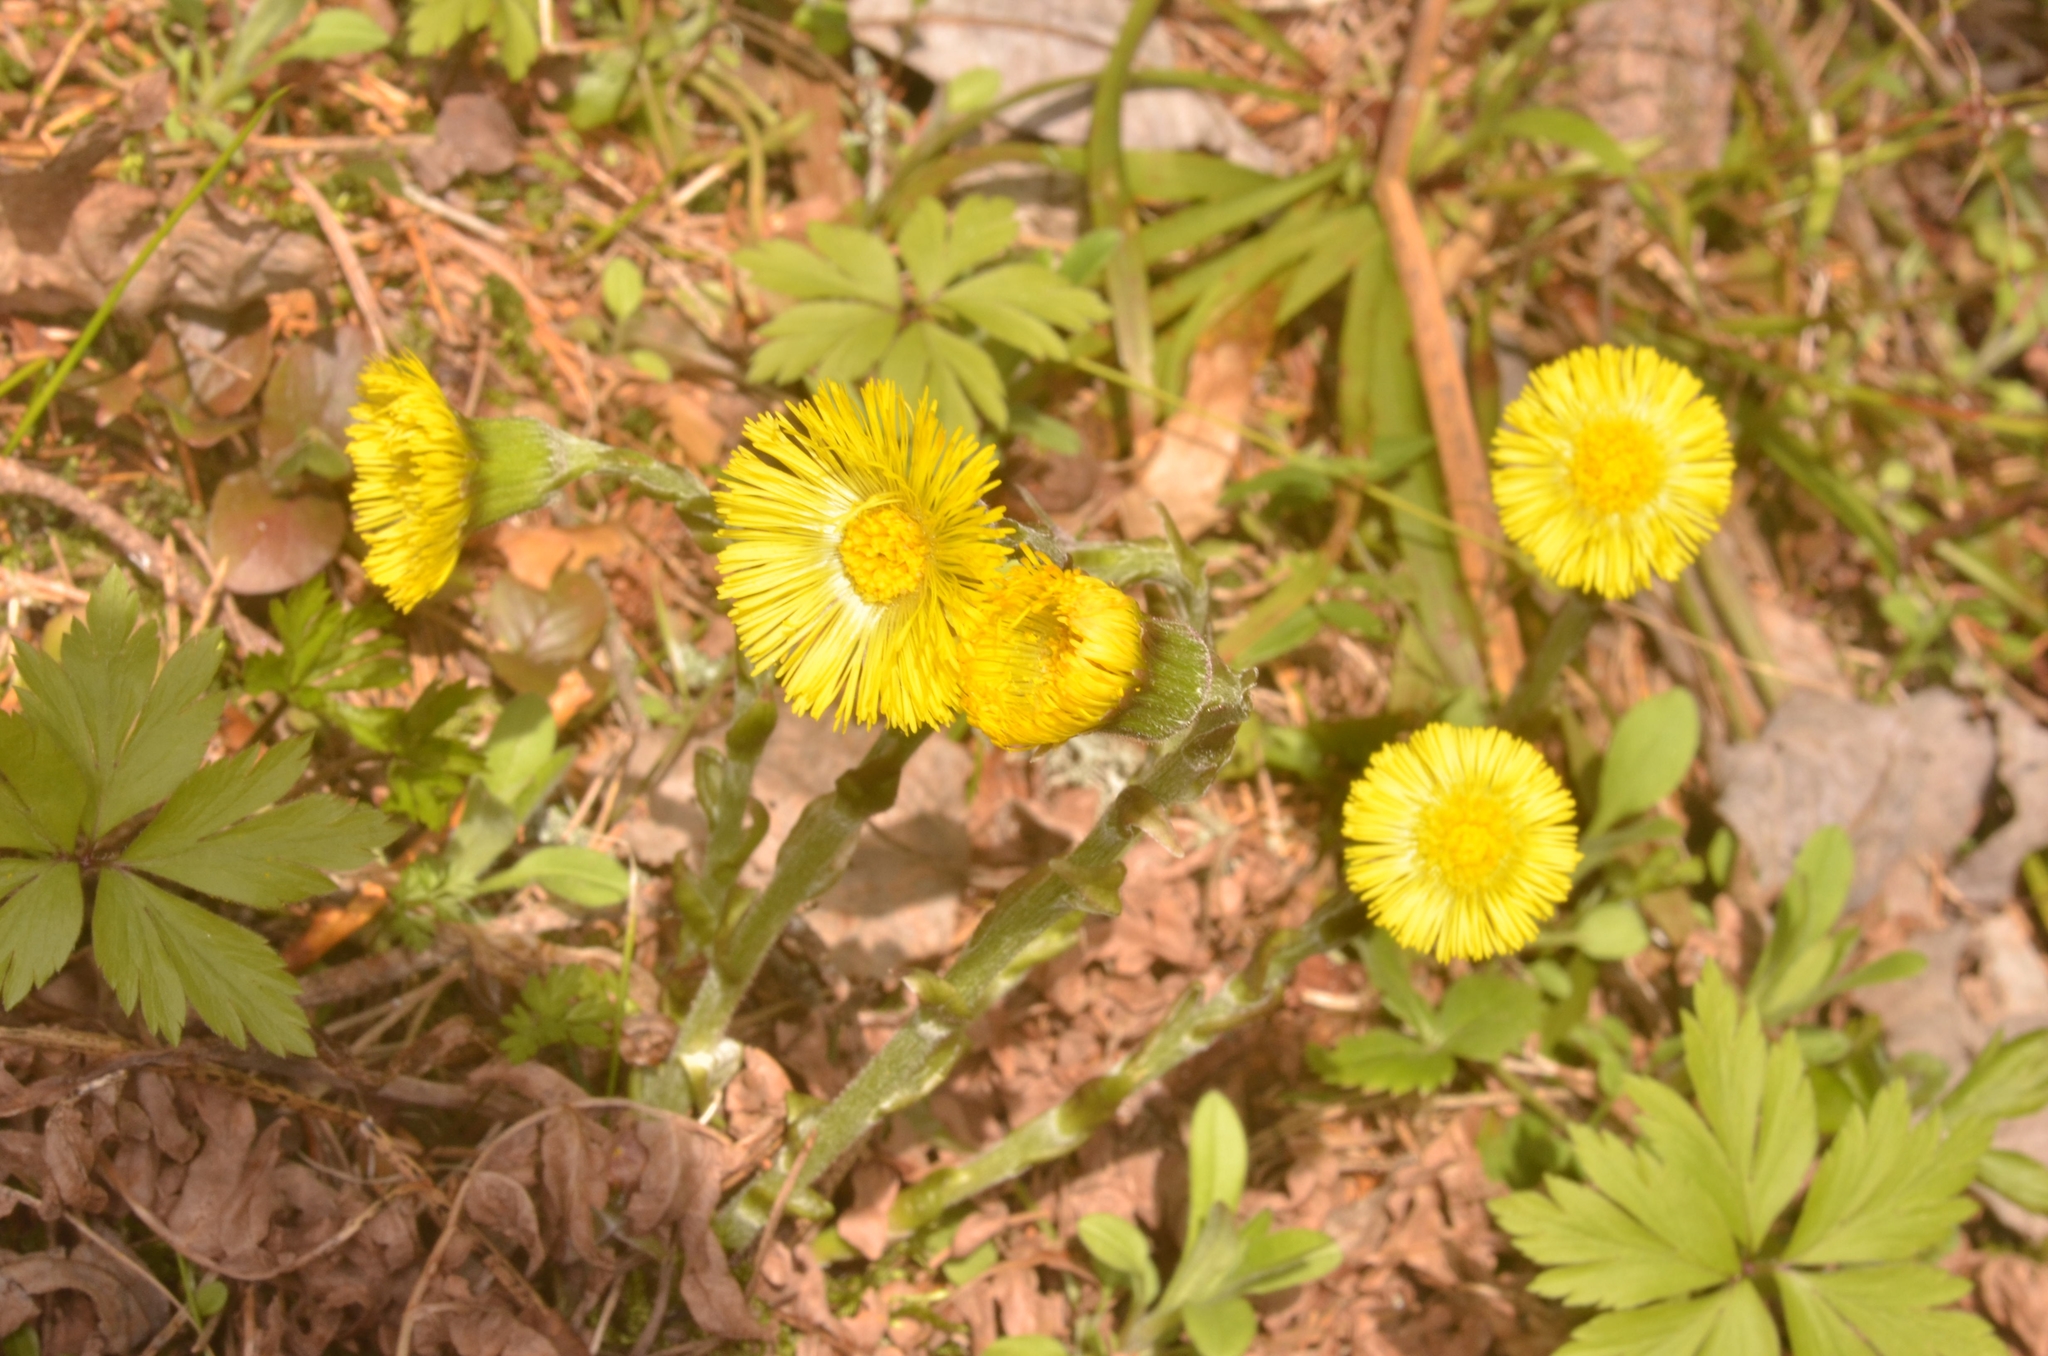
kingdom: Plantae
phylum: Tracheophyta
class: Magnoliopsida
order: Asterales
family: Asteraceae
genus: Tussilago
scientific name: Tussilago farfara
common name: Coltsfoot
